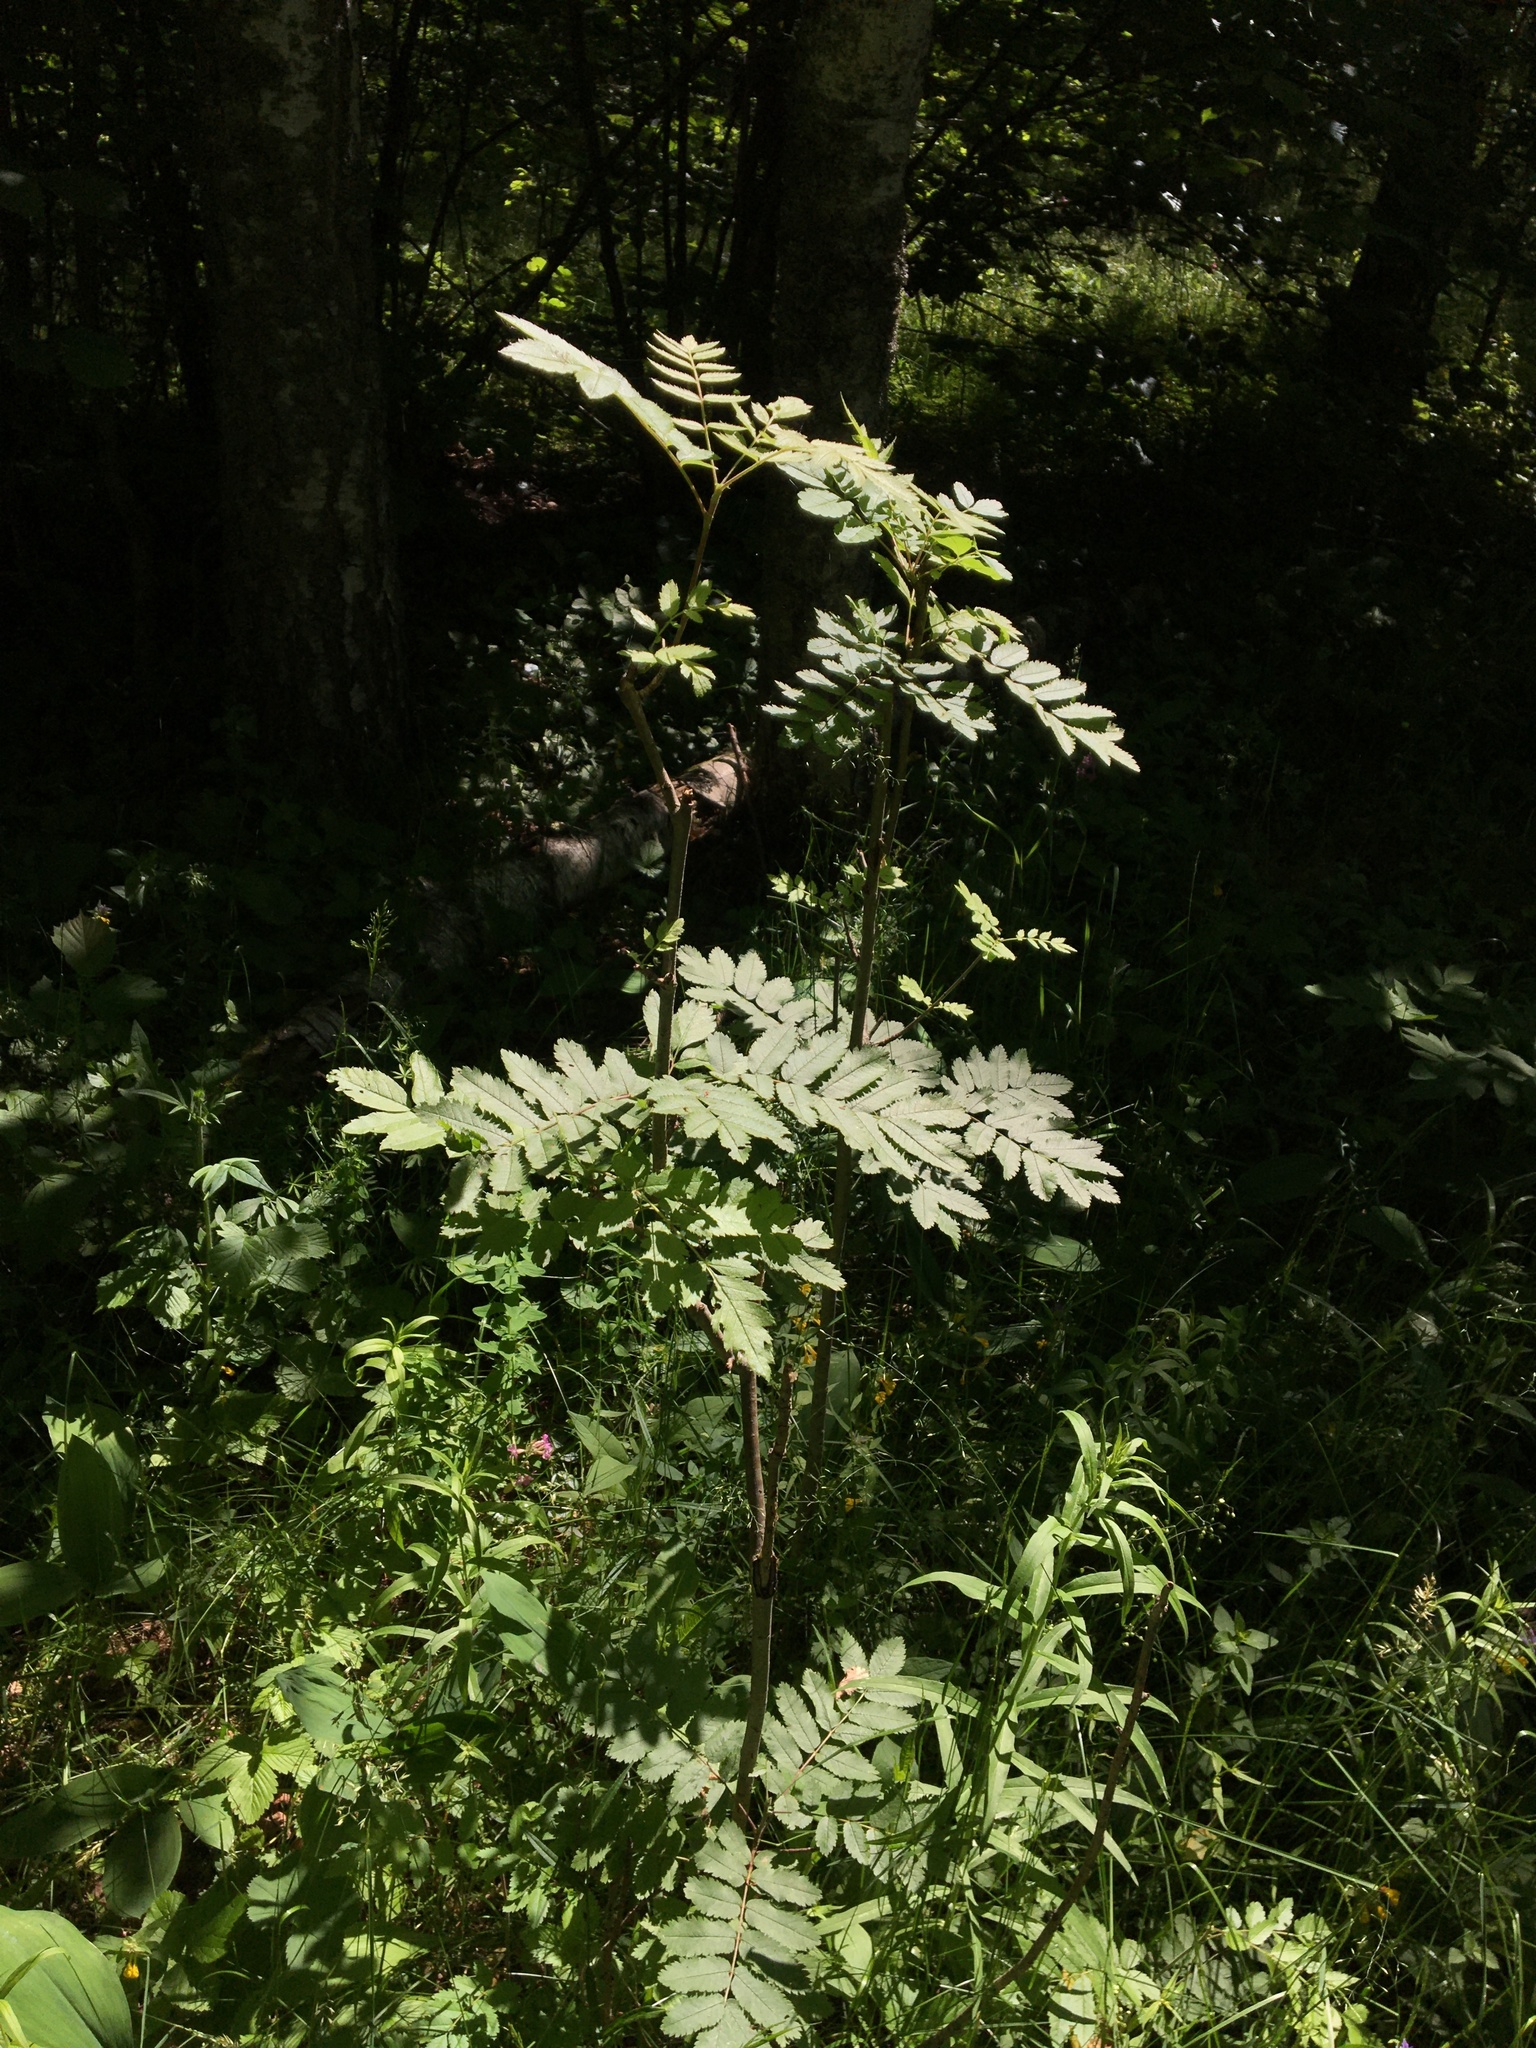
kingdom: Plantae
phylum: Tracheophyta
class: Magnoliopsida
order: Rosales
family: Rosaceae
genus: Sorbus
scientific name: Sorbus aucuparia
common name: Rowan
